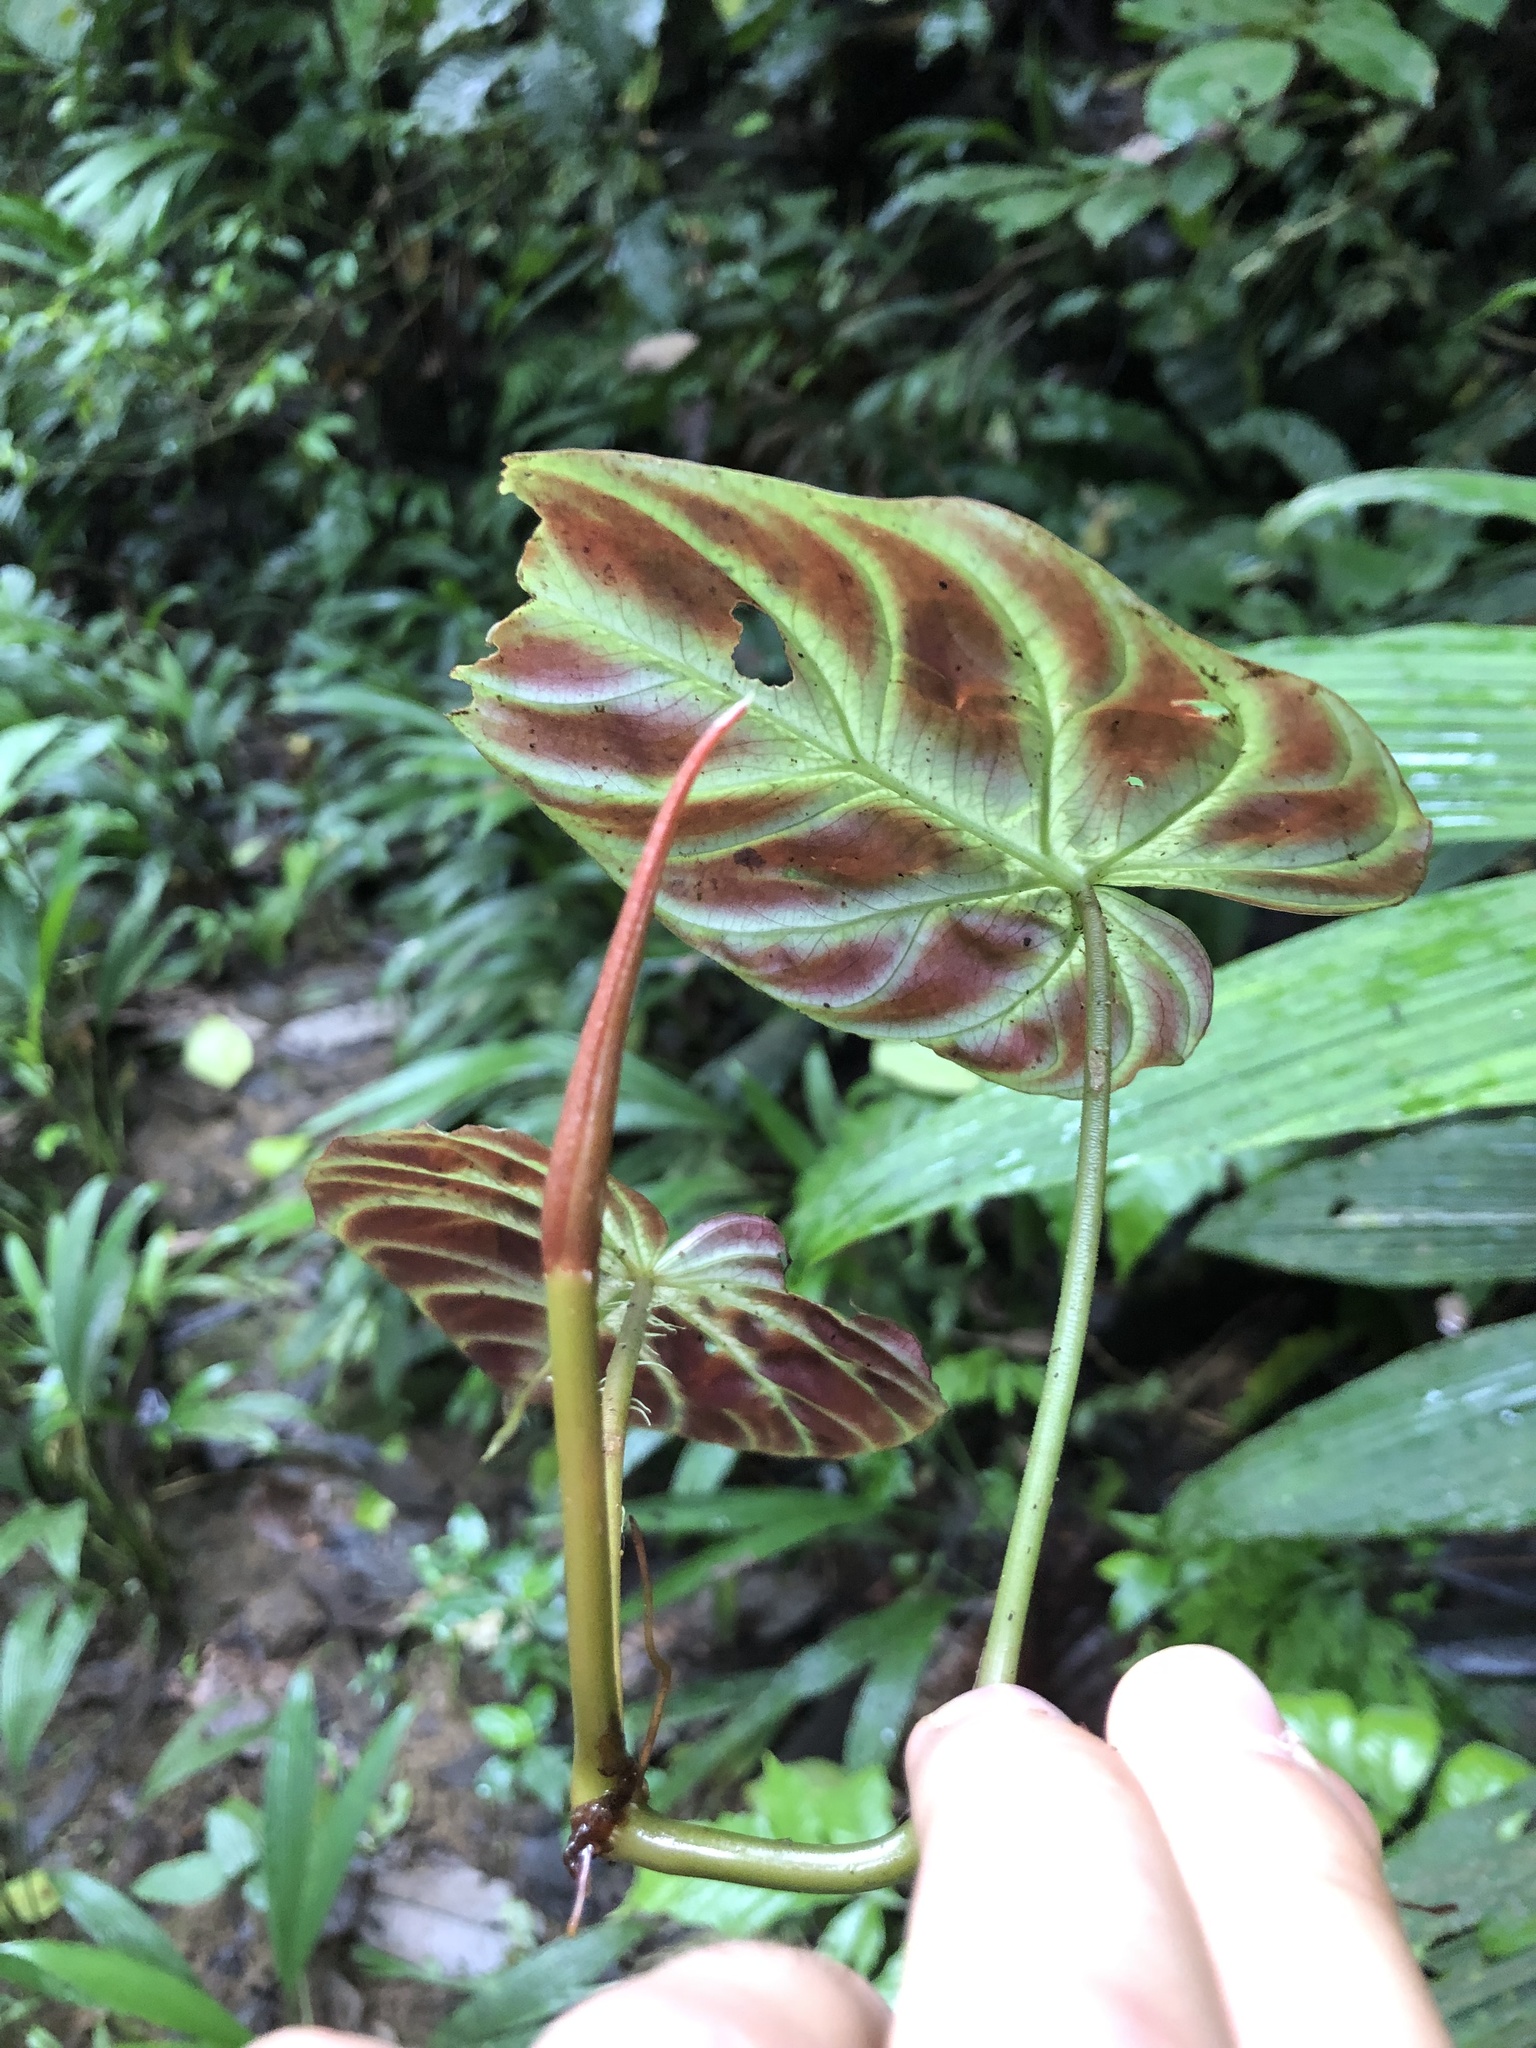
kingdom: Plantae
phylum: Tracheophyta
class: Liliopsida
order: Alismatales
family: Araceae
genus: Philodendron
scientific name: Philodendron verrucosum
